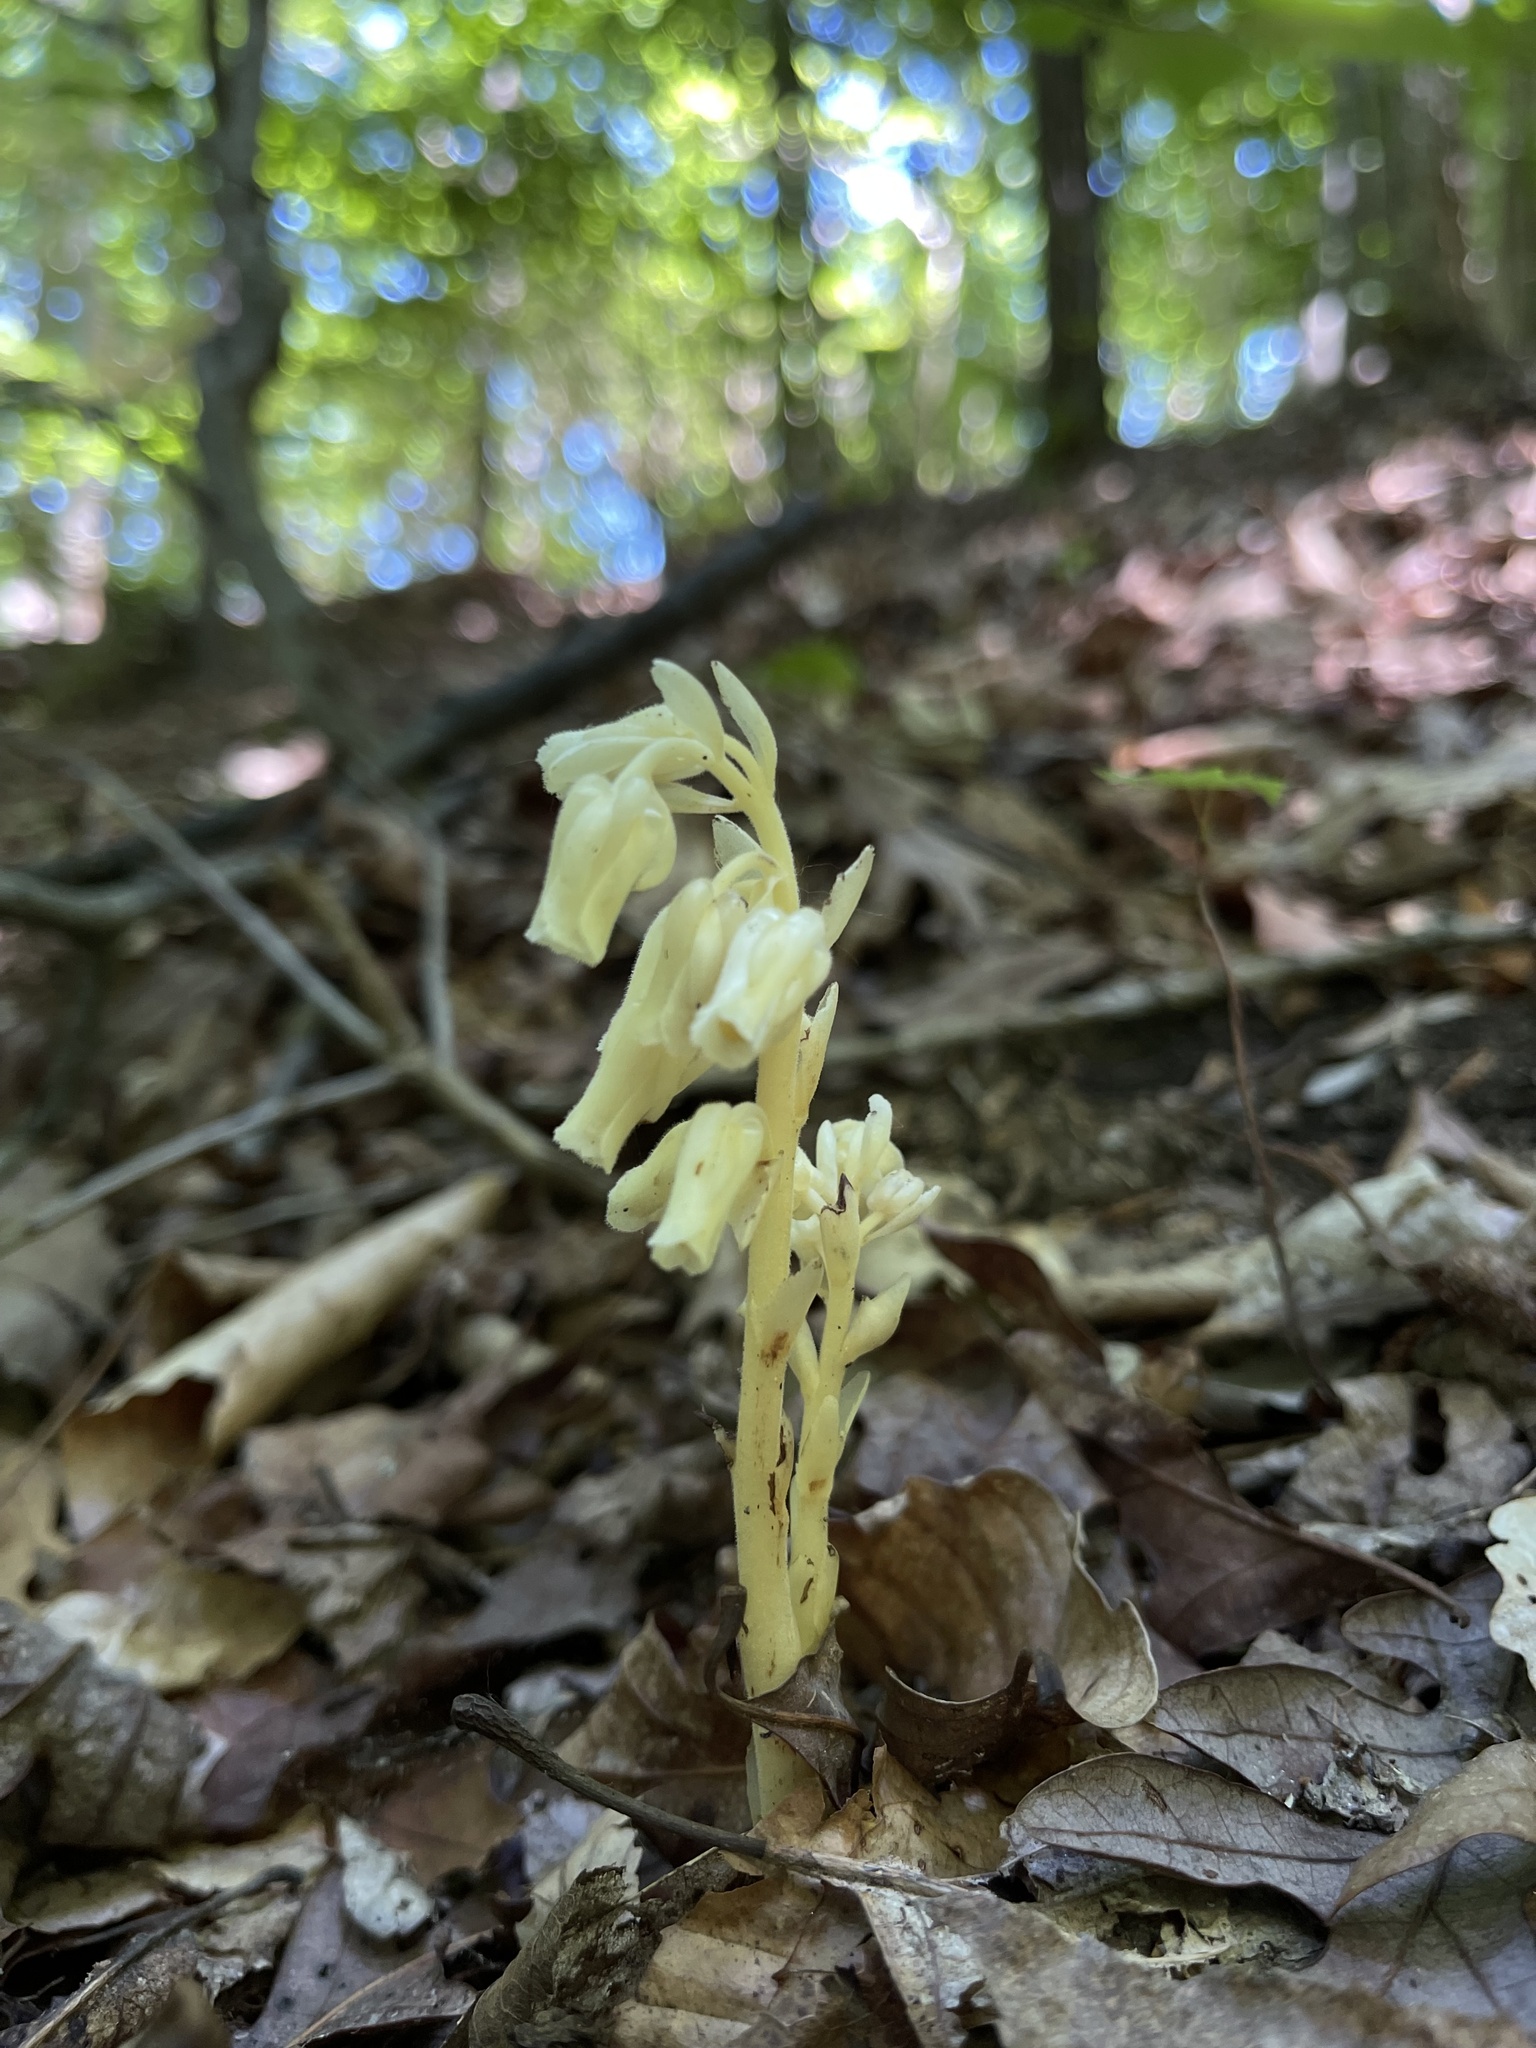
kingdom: Plantae
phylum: Tracheophyta
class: Magnoliopsida
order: Ericales
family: Ericaceae
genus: Hypopitys
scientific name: Hypopitys monotropa
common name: Yellow bird's-nest
